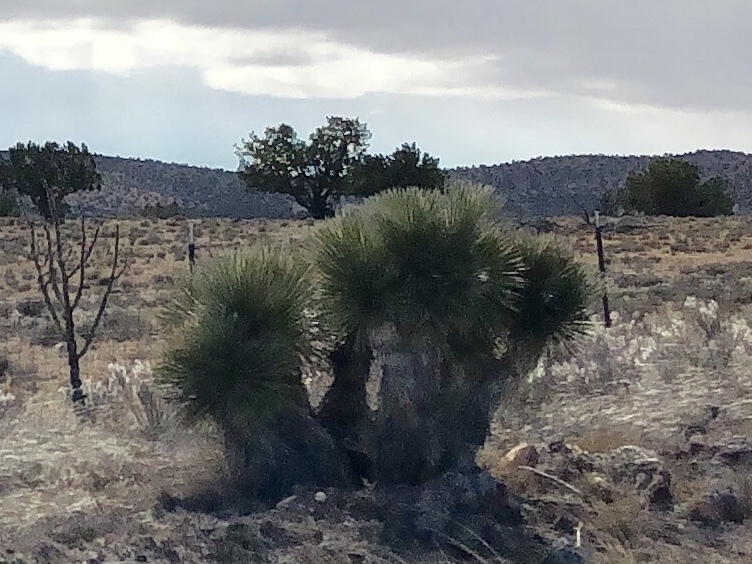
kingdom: Plantae
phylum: Tracheophyta
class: Liliopsida
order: Asparagales
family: Asparagaceae
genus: Yucca
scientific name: Yucca elata
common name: Palmella
